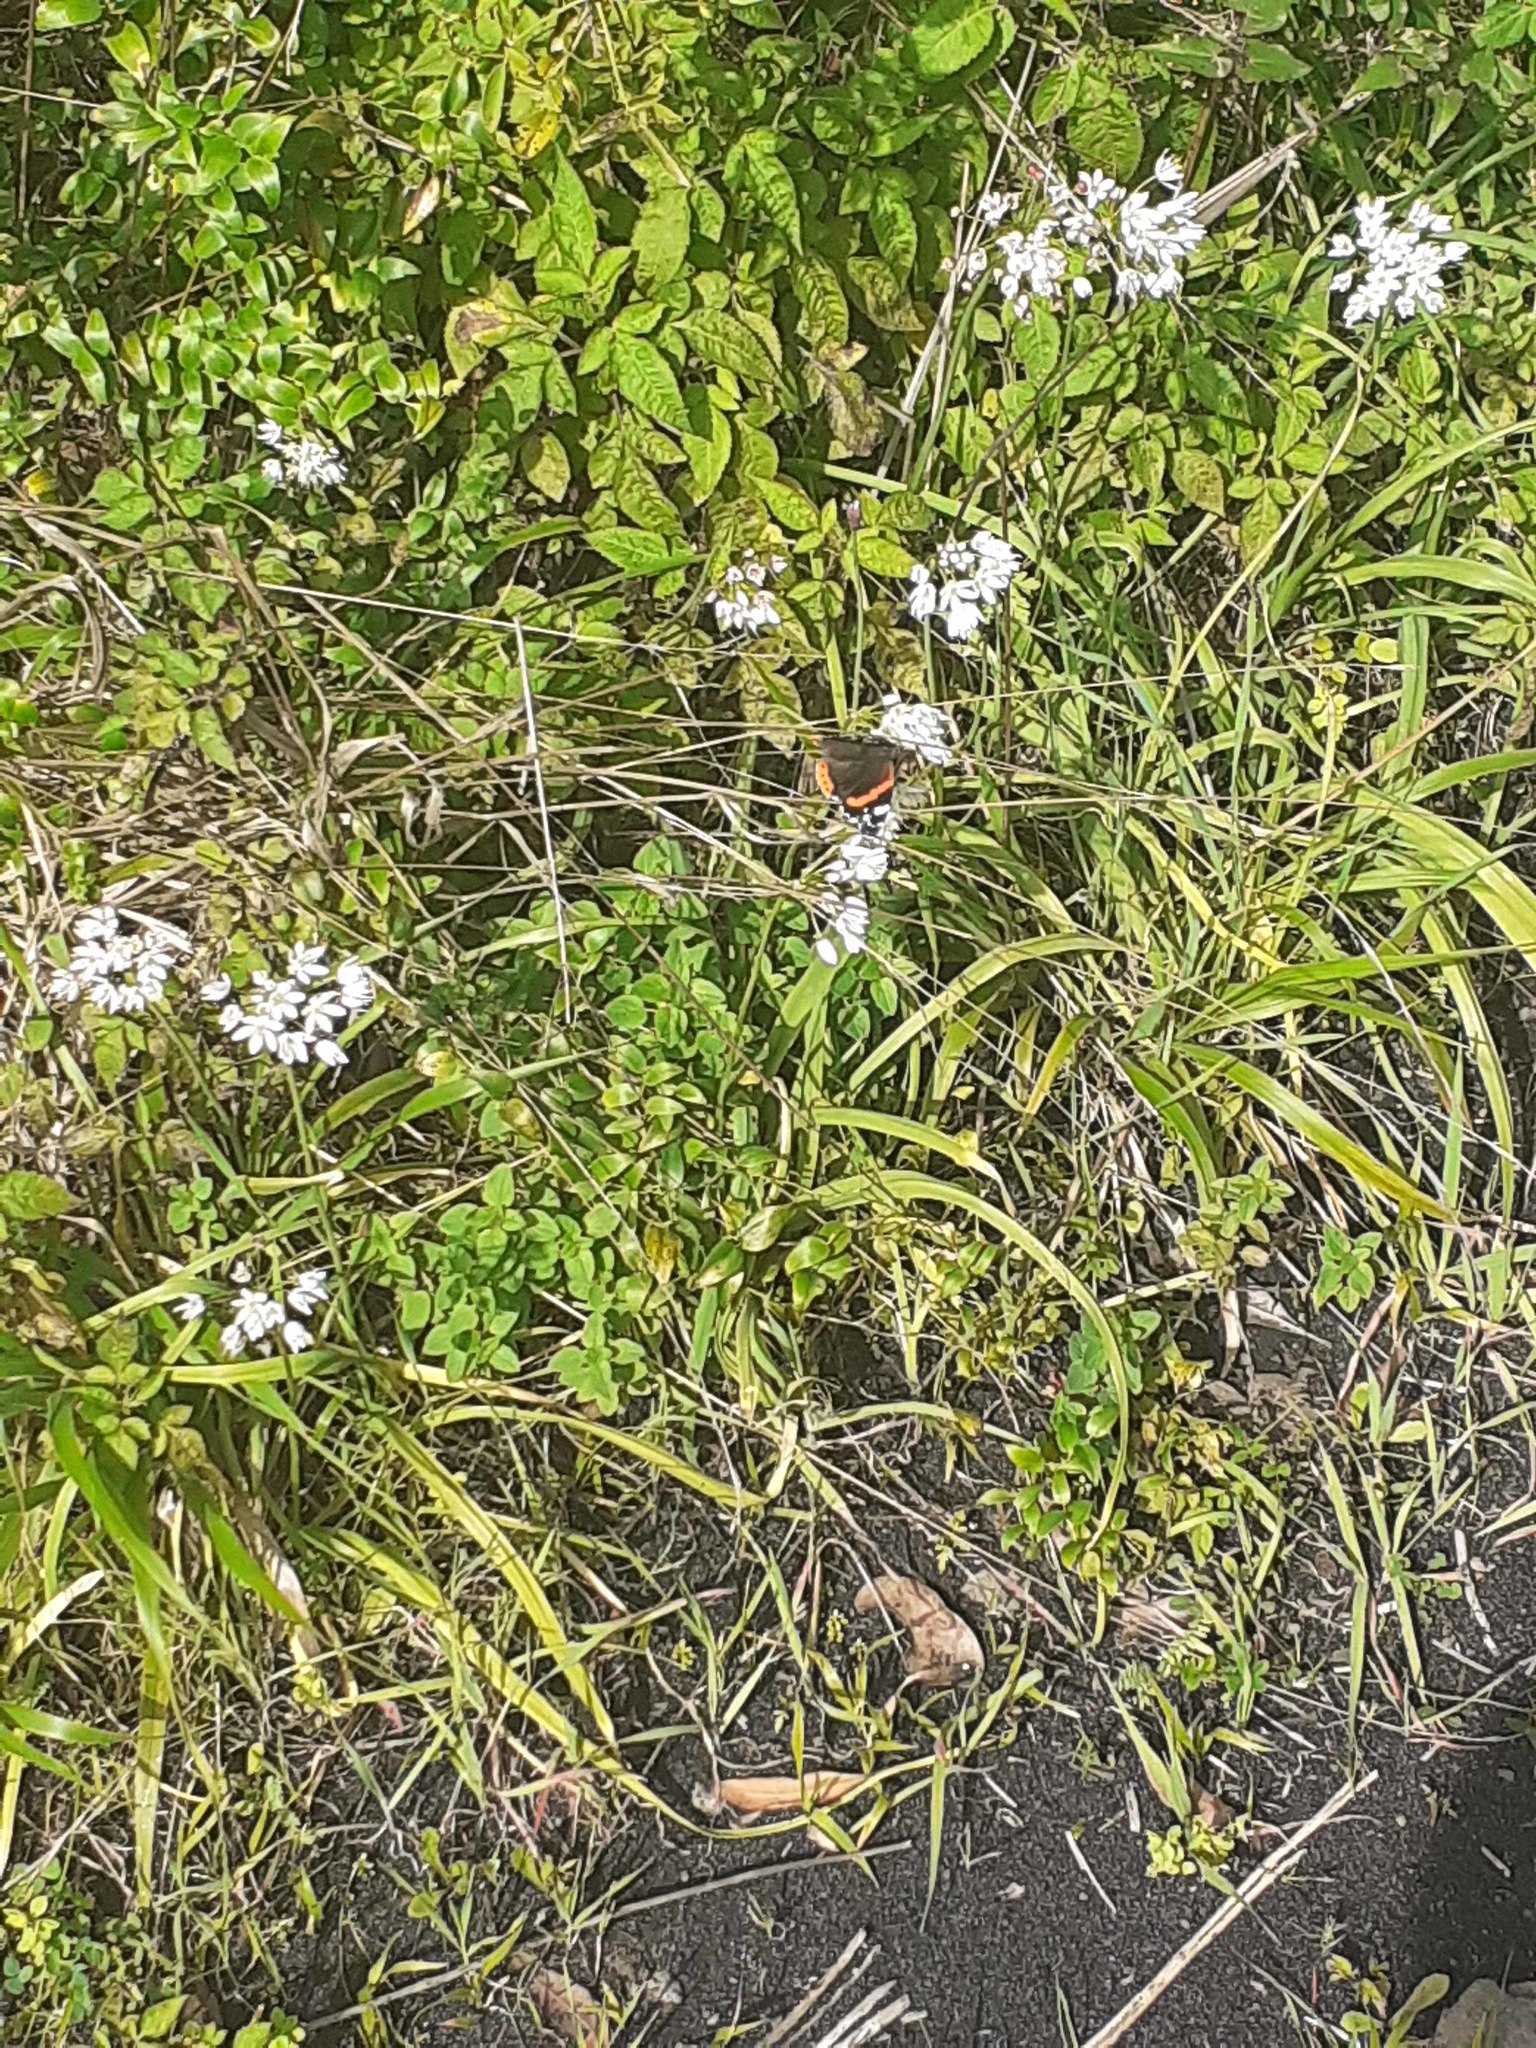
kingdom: Animalia
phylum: Arthropoda
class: Insecta
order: Lepidoptera
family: Nymphalidae
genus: Vanessa
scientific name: Vanessa atalanta
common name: Red admiral
